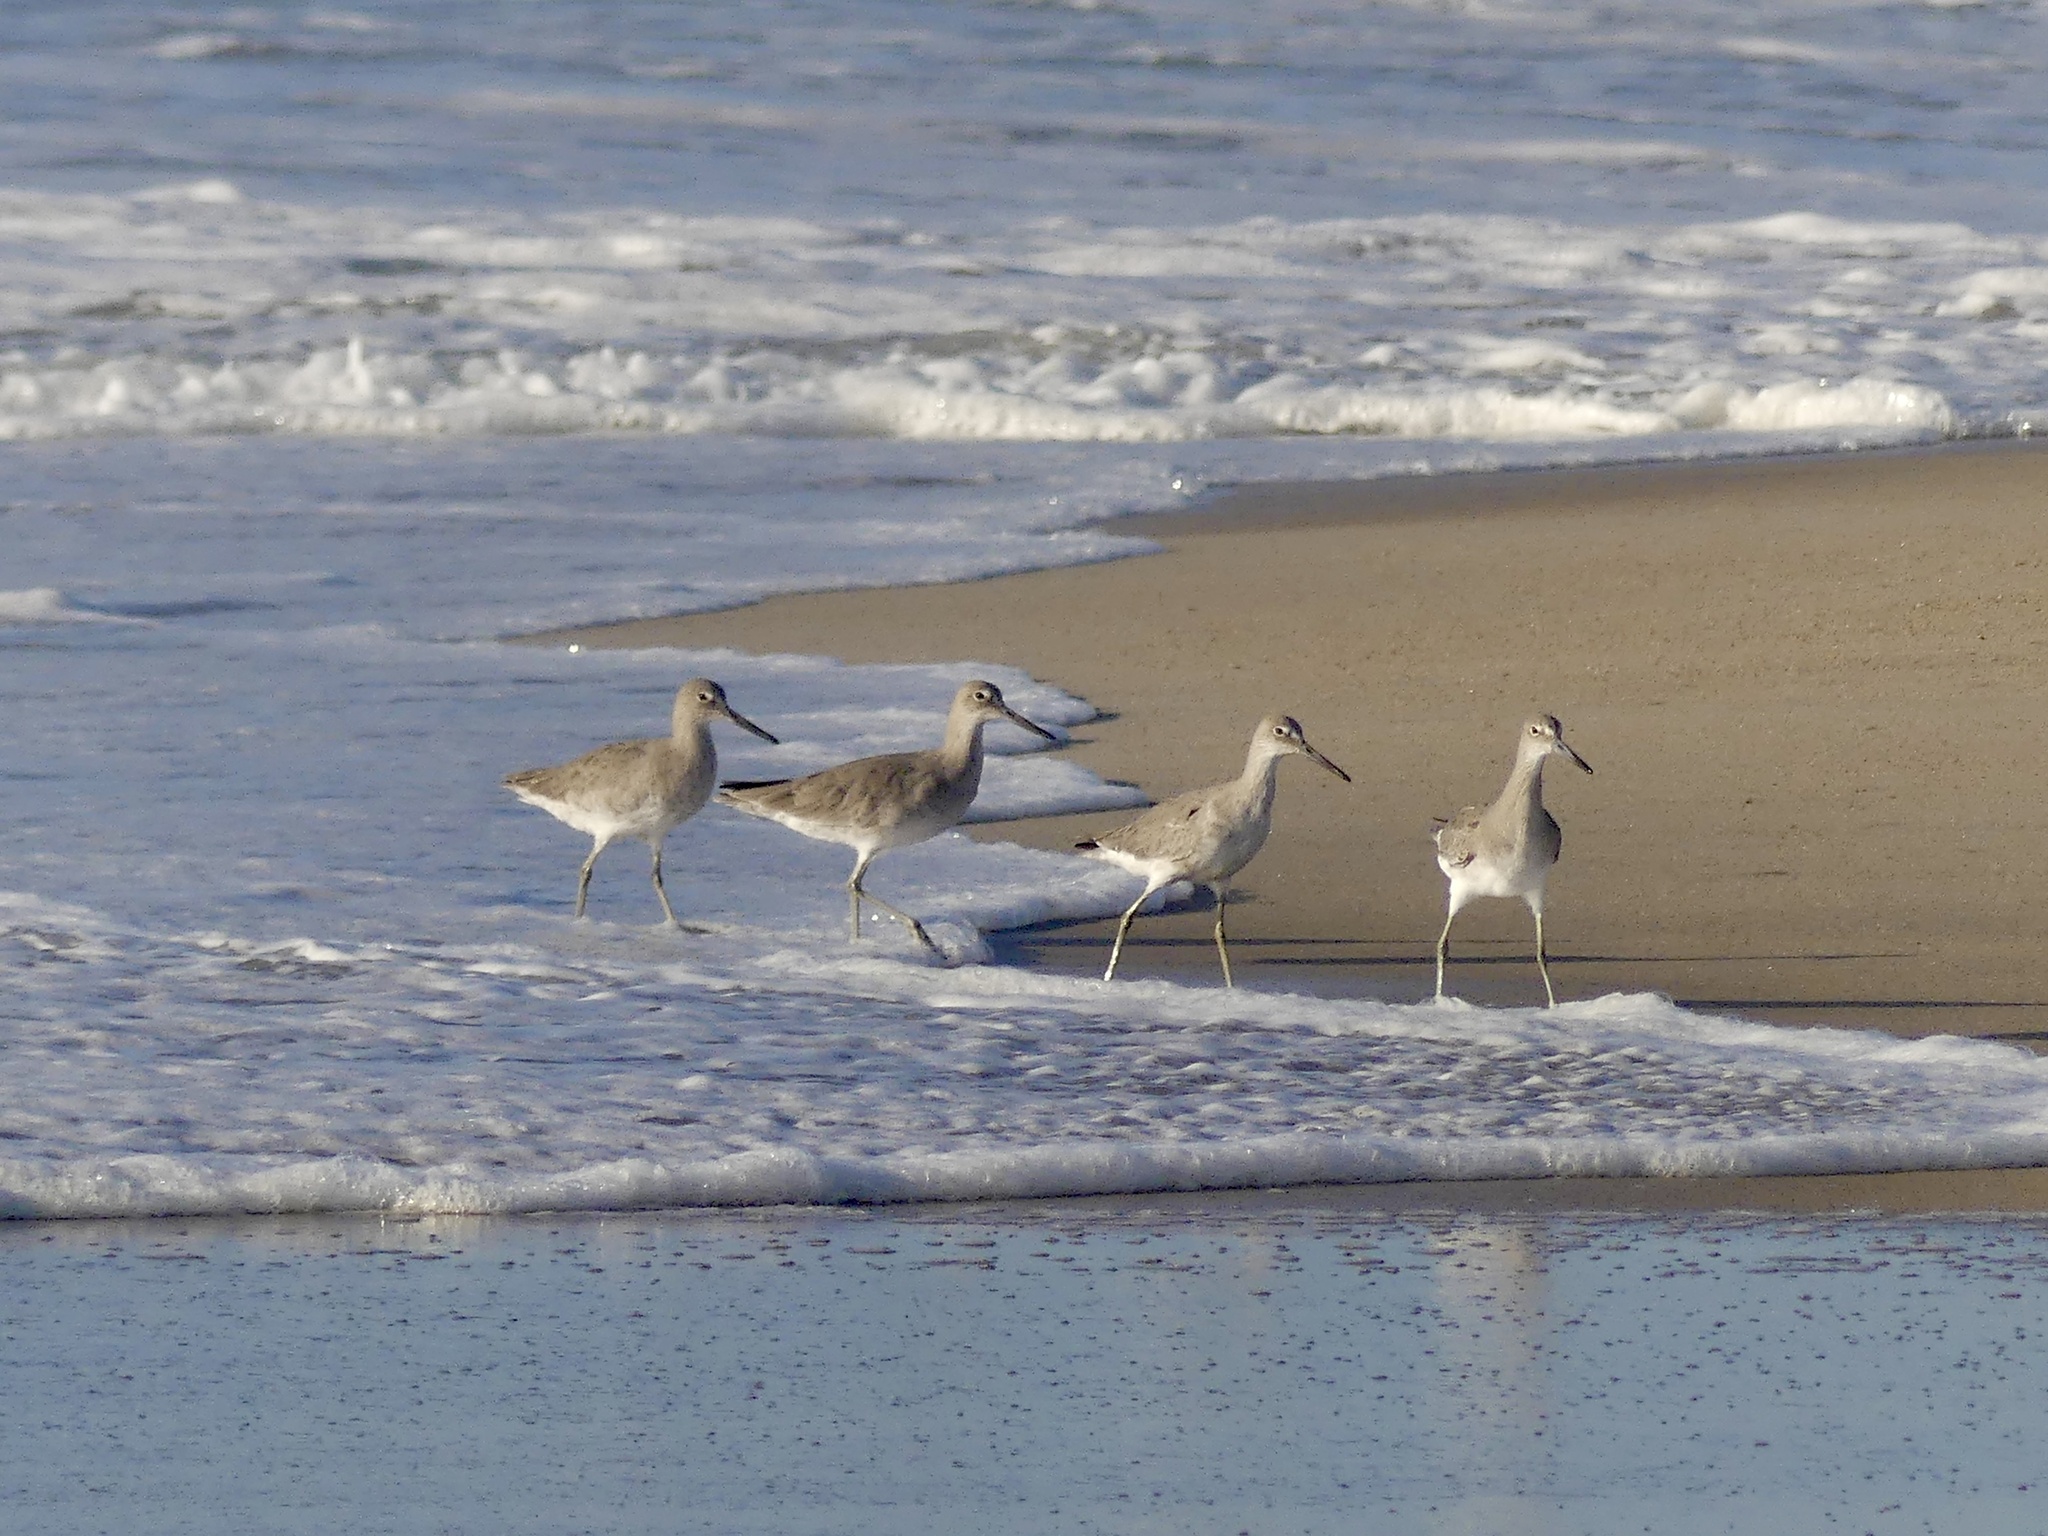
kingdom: Animalia
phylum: Chordata
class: Aves
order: Charadriiformes
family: Scolopacidae
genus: Tringa
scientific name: Tringa semipalmata
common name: Willet
